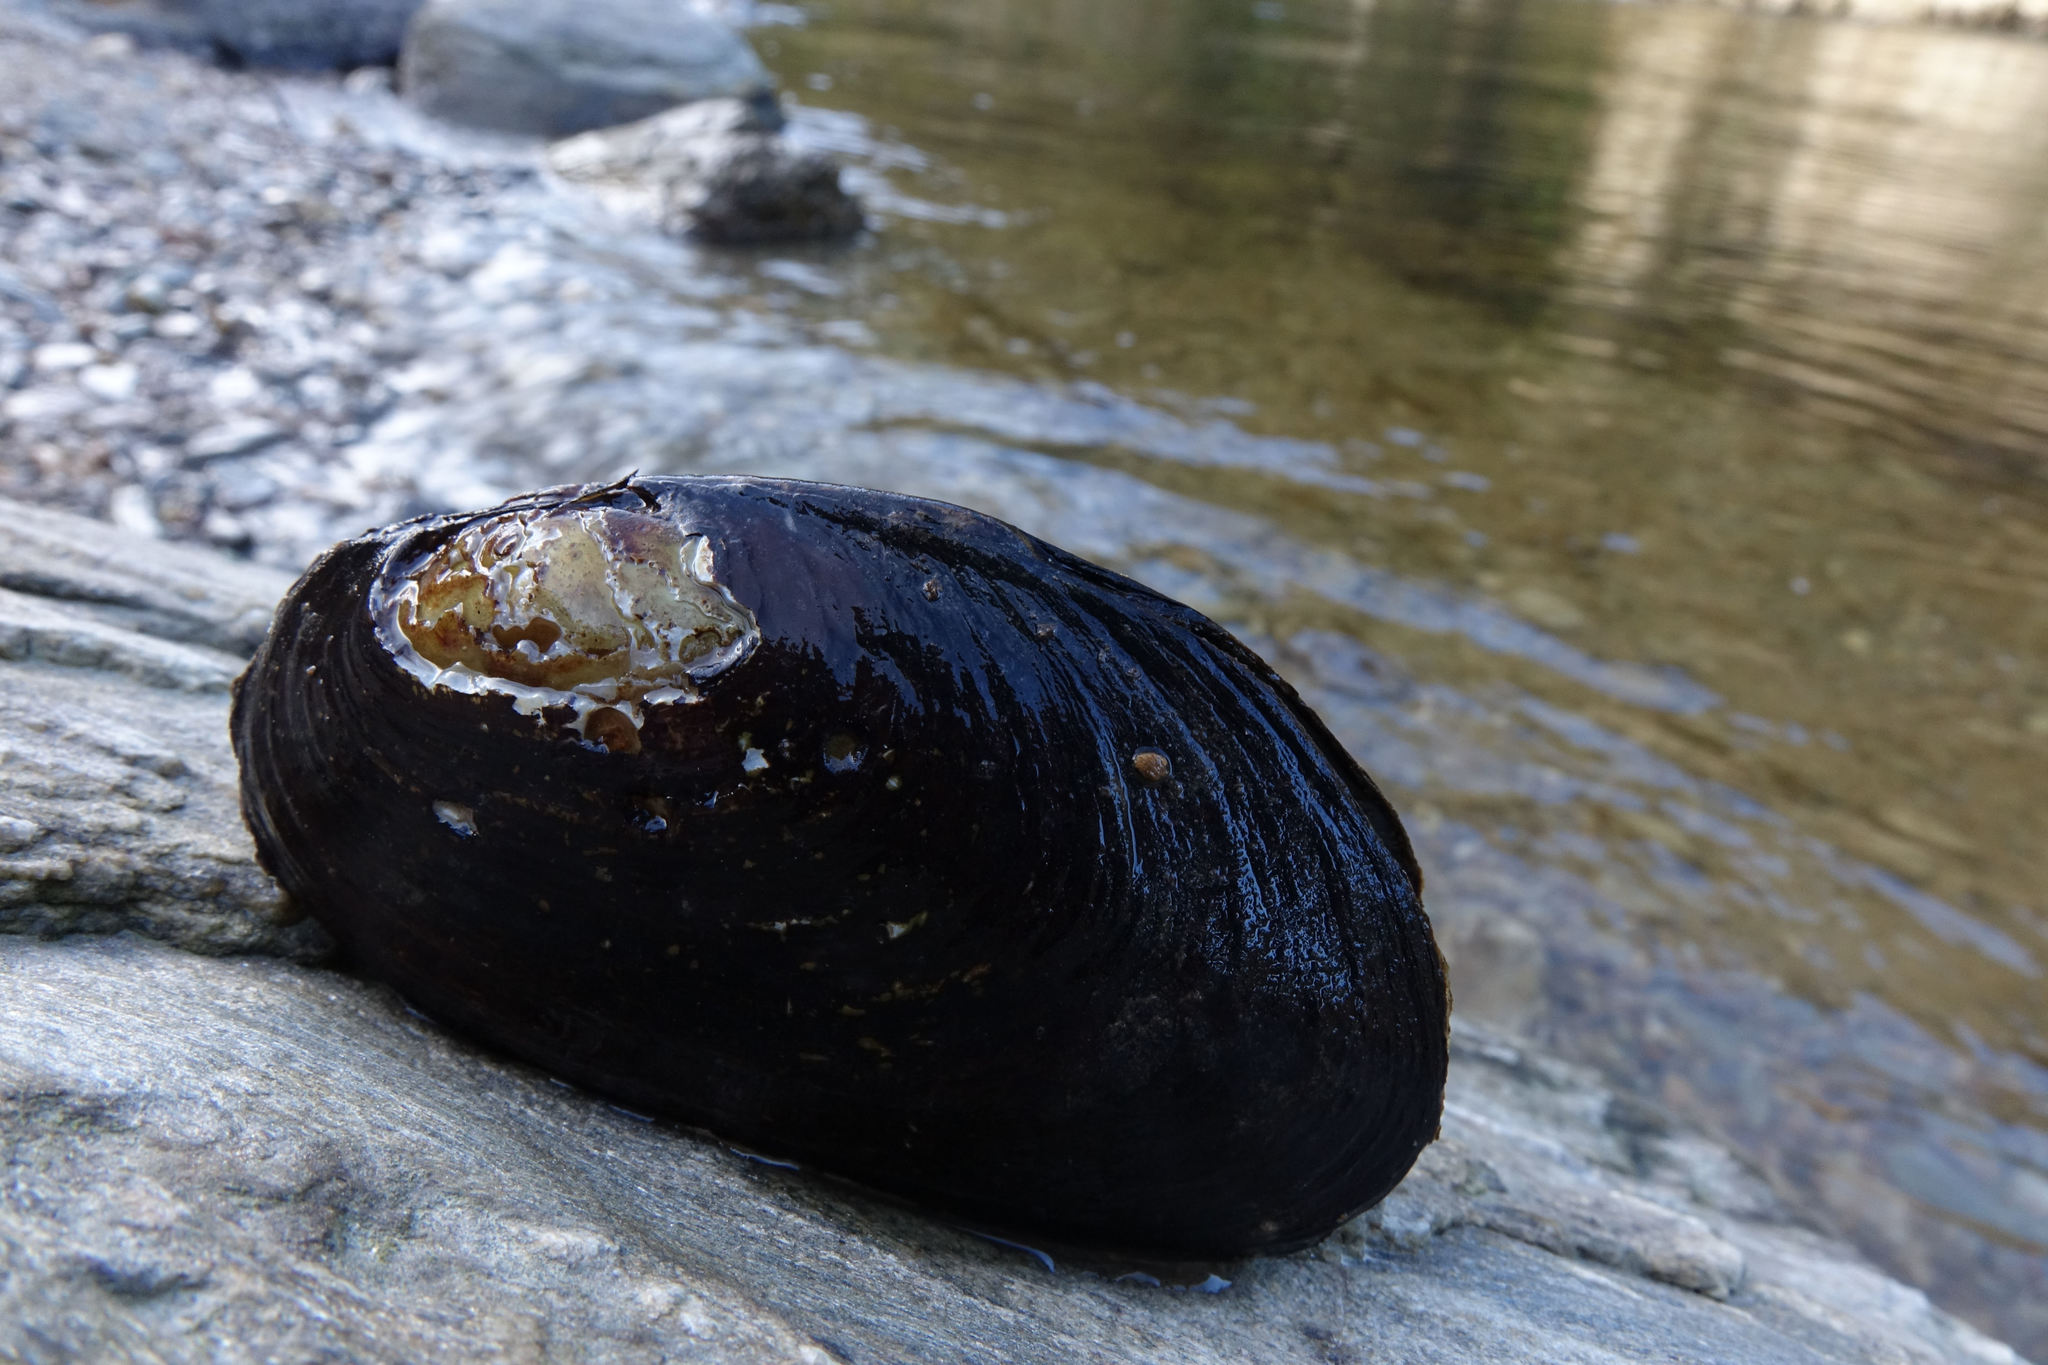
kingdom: Animalia
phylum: Mollusca
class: Bivalvia
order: Unionida
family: Hyriidae
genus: Echyridella
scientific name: Echyridella menziesii
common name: New zealand freshwater mussel
